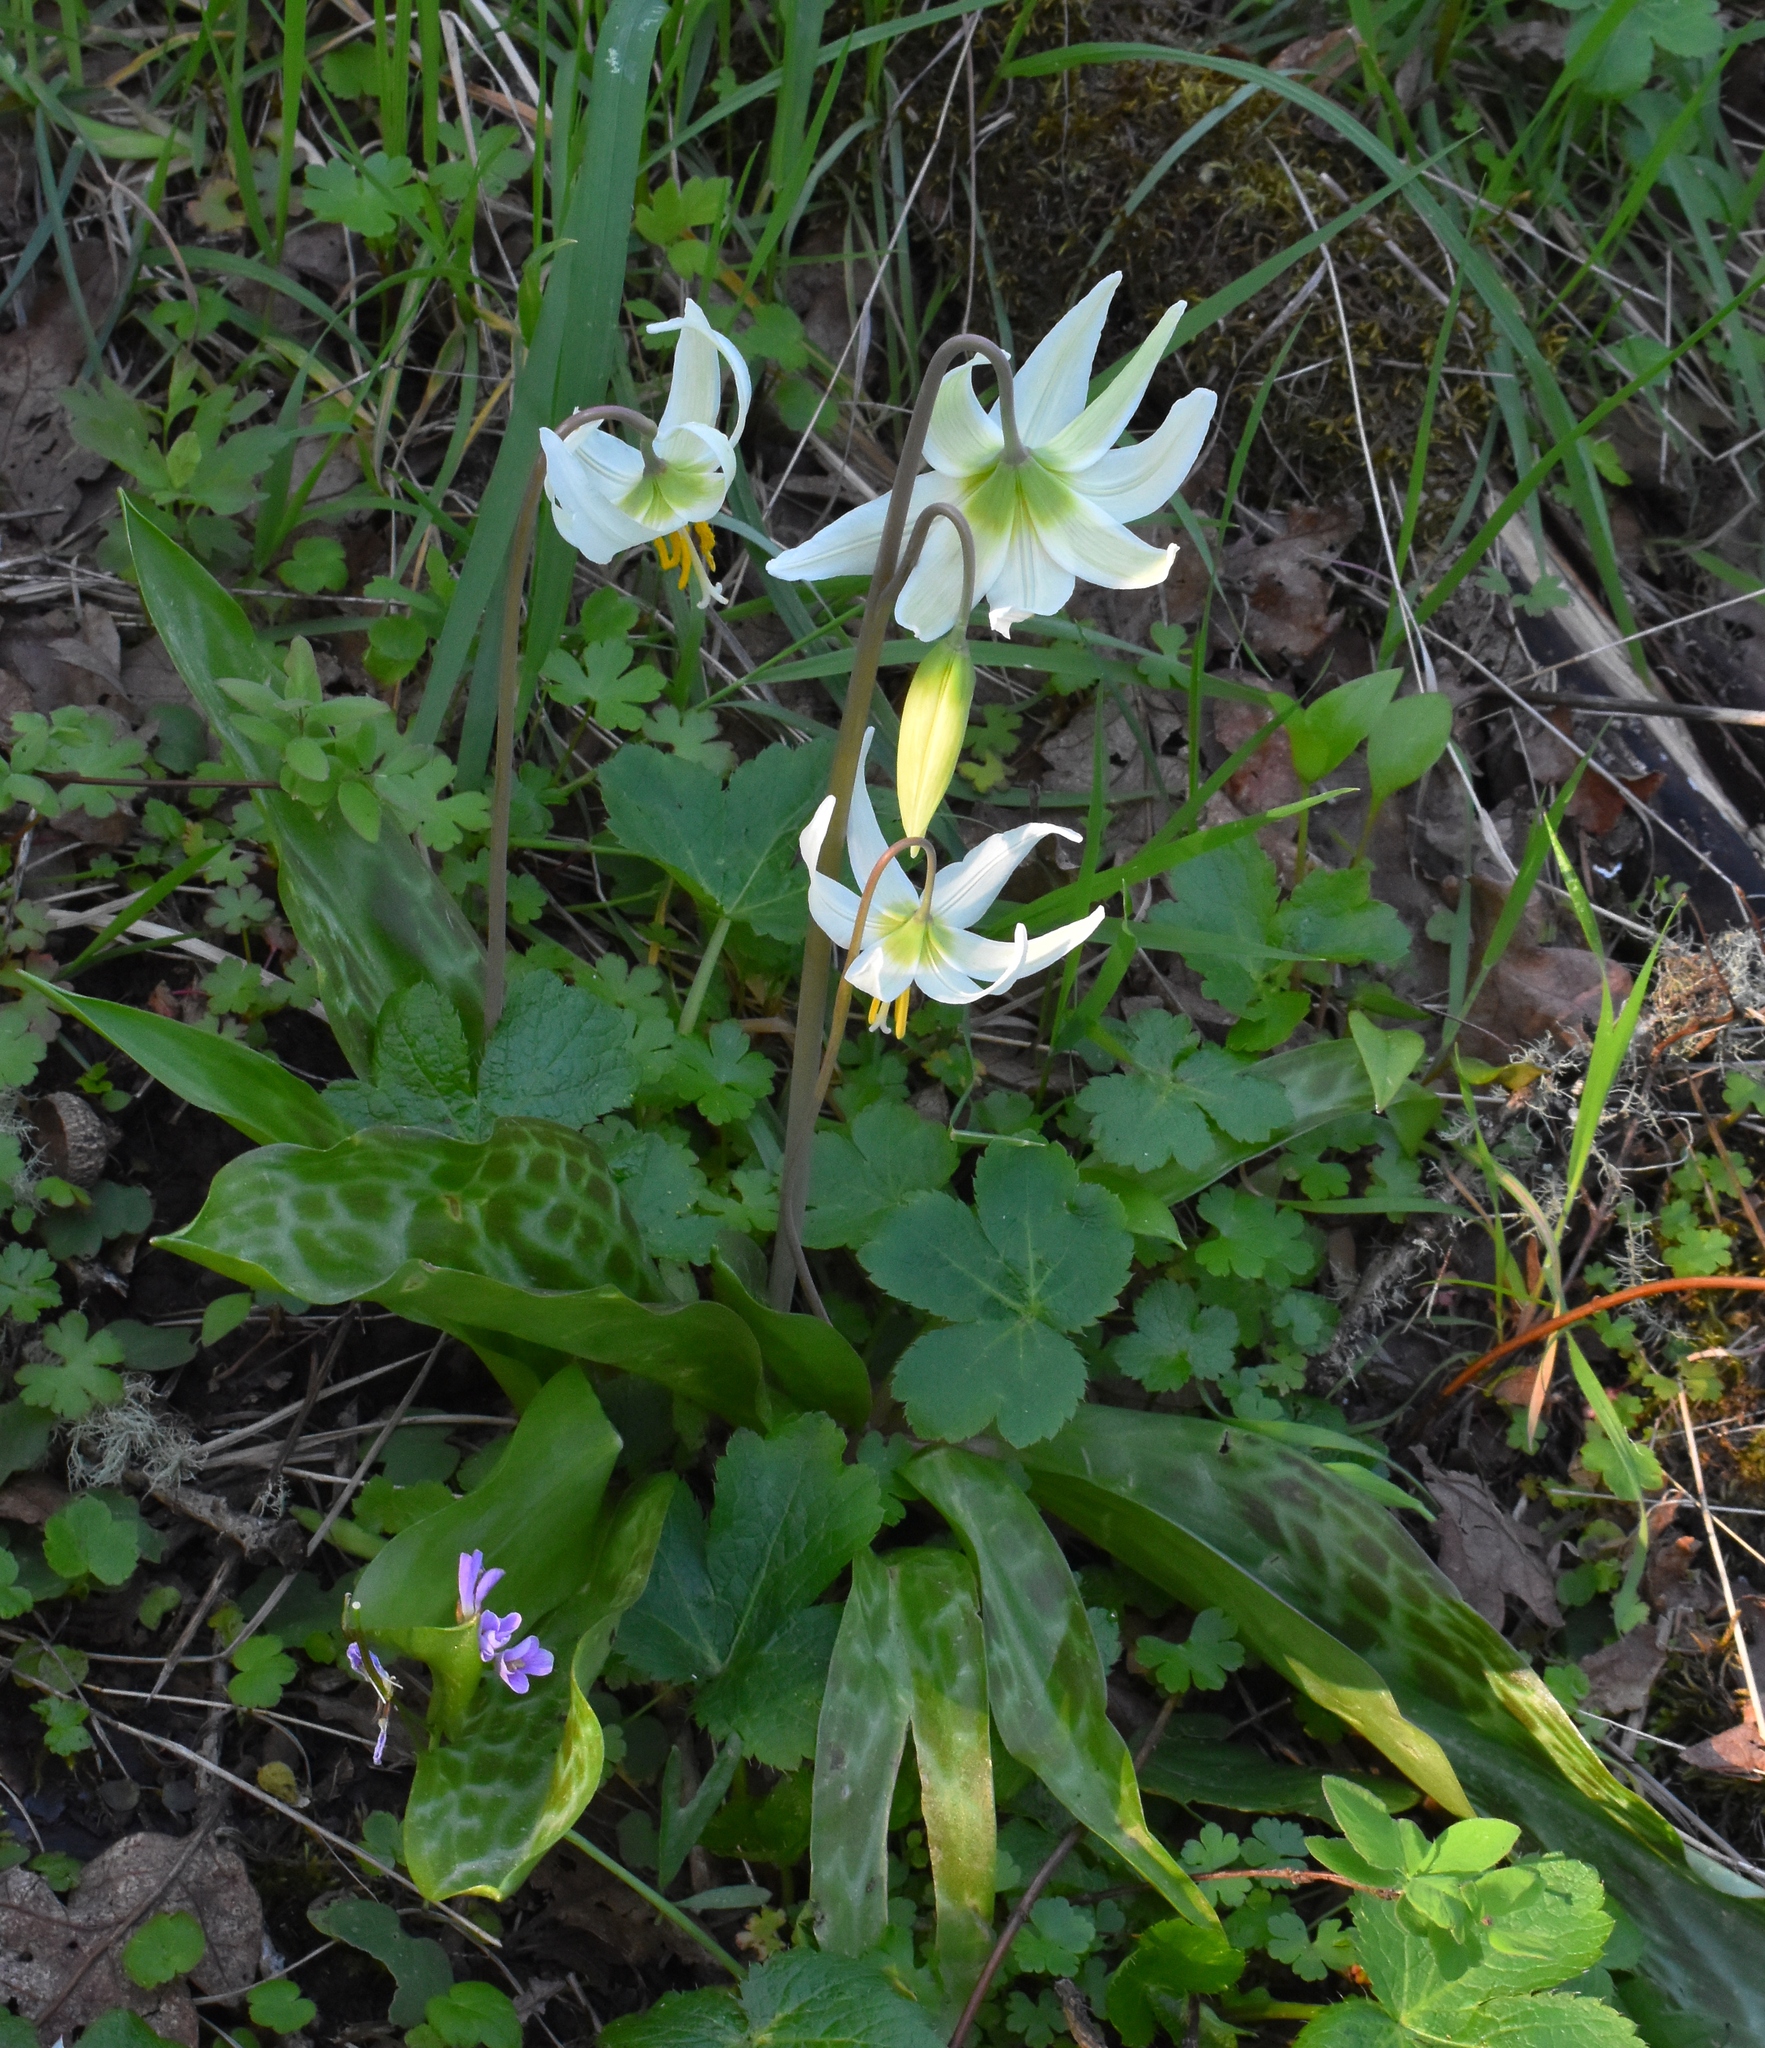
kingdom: Plantae
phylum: Tracheophyta
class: Liliopsida
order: Liliales
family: Liliaceae
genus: Erythronium
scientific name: Erythronium oregonum
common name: Giant adder's-tongue
